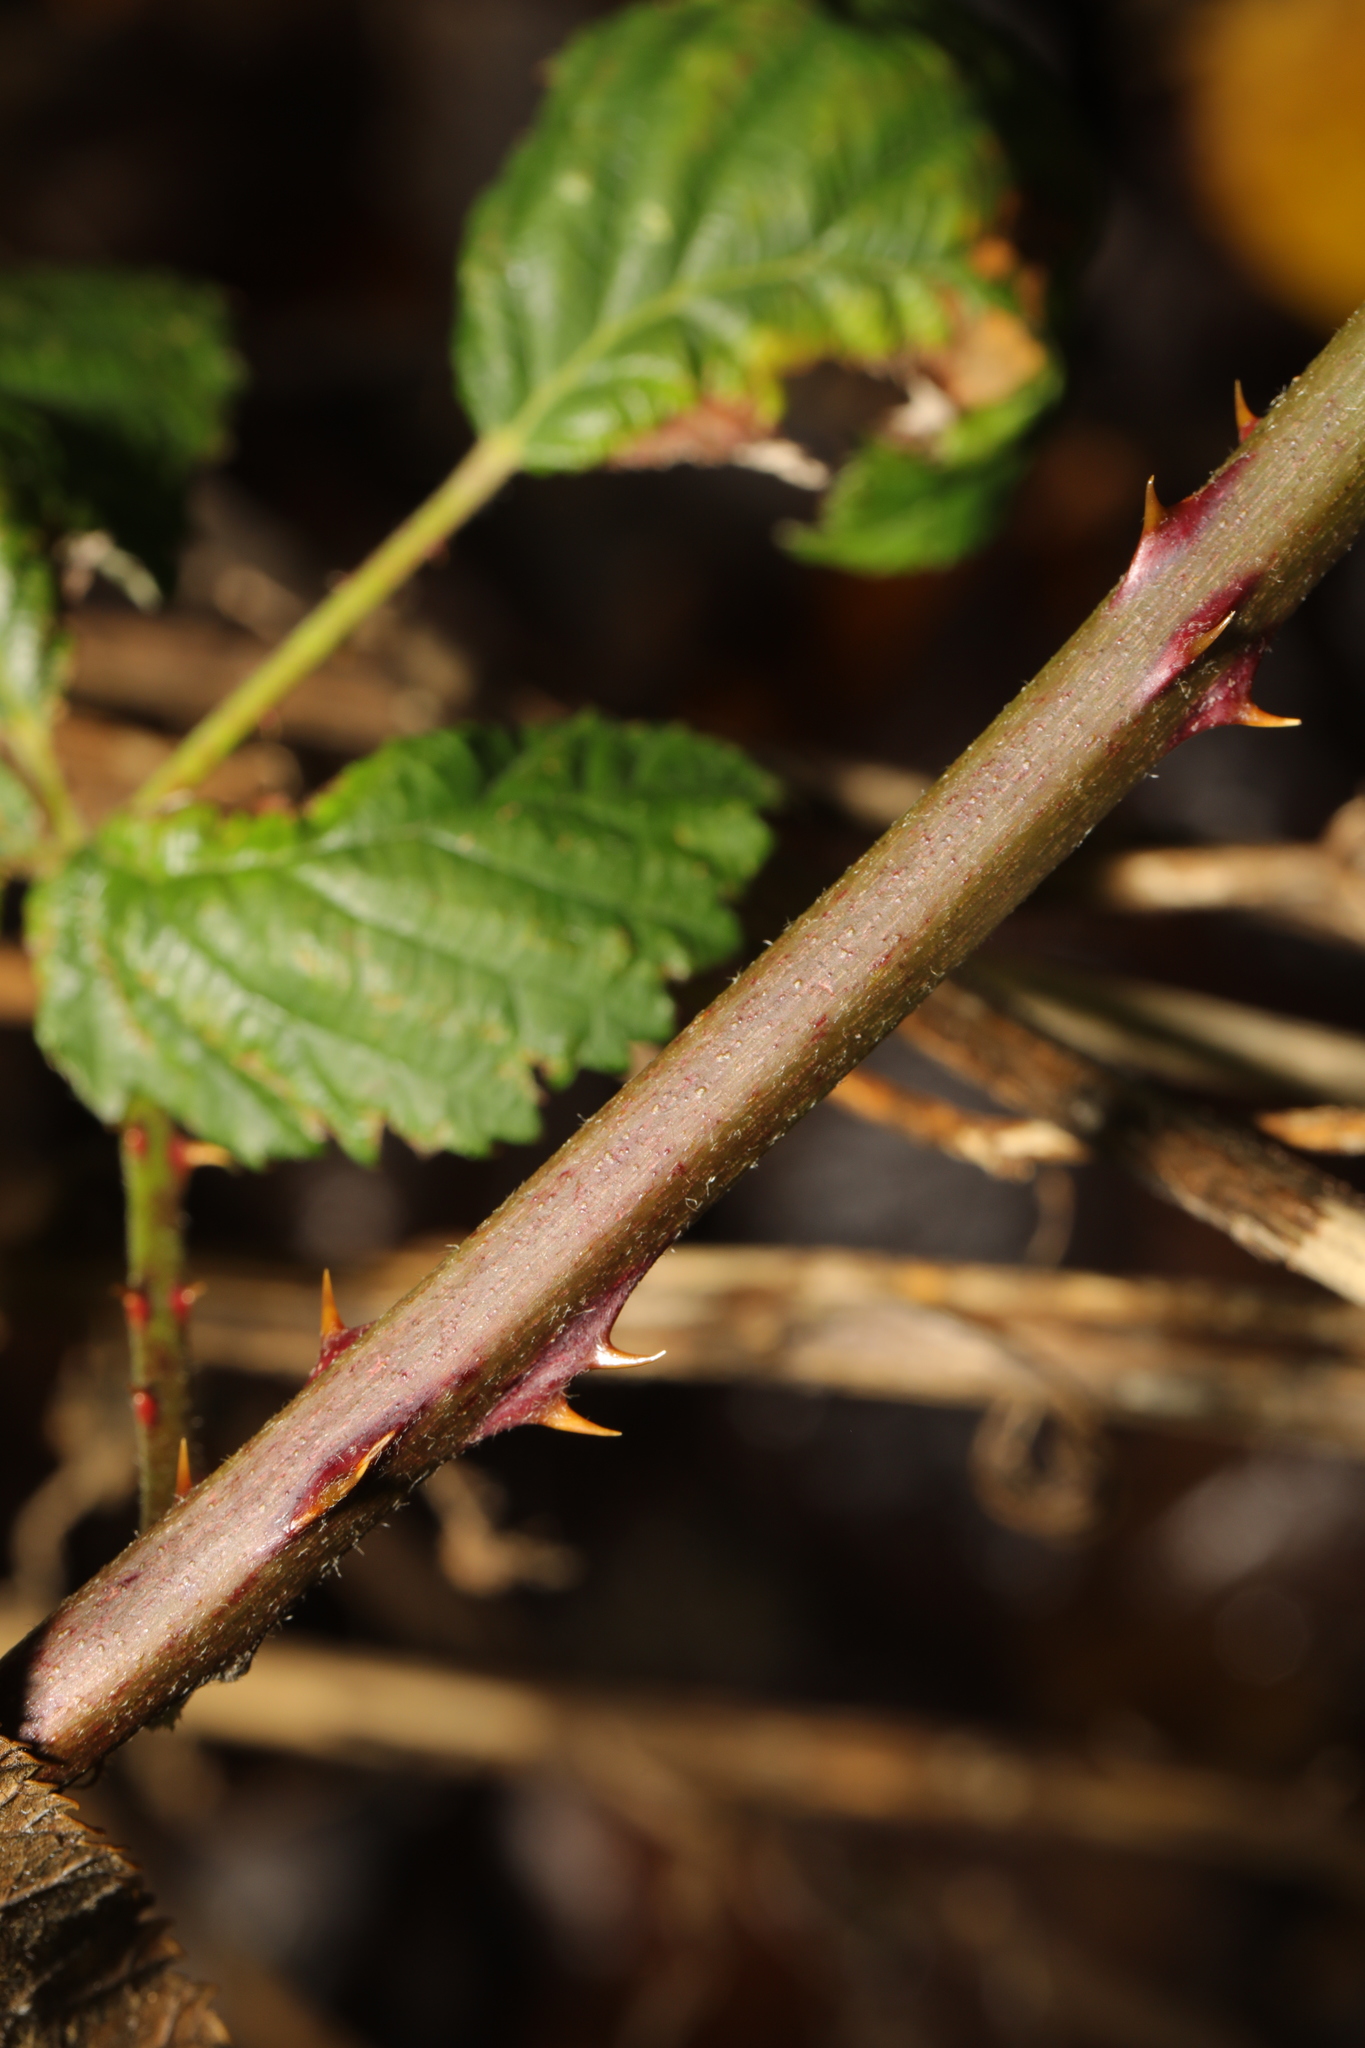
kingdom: Plantae
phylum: Tracheophyta
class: Magnoliopsida
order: Rosales
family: Rosaceae
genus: Rubus
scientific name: Rubus armeniacus
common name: Himalayan blackberry
